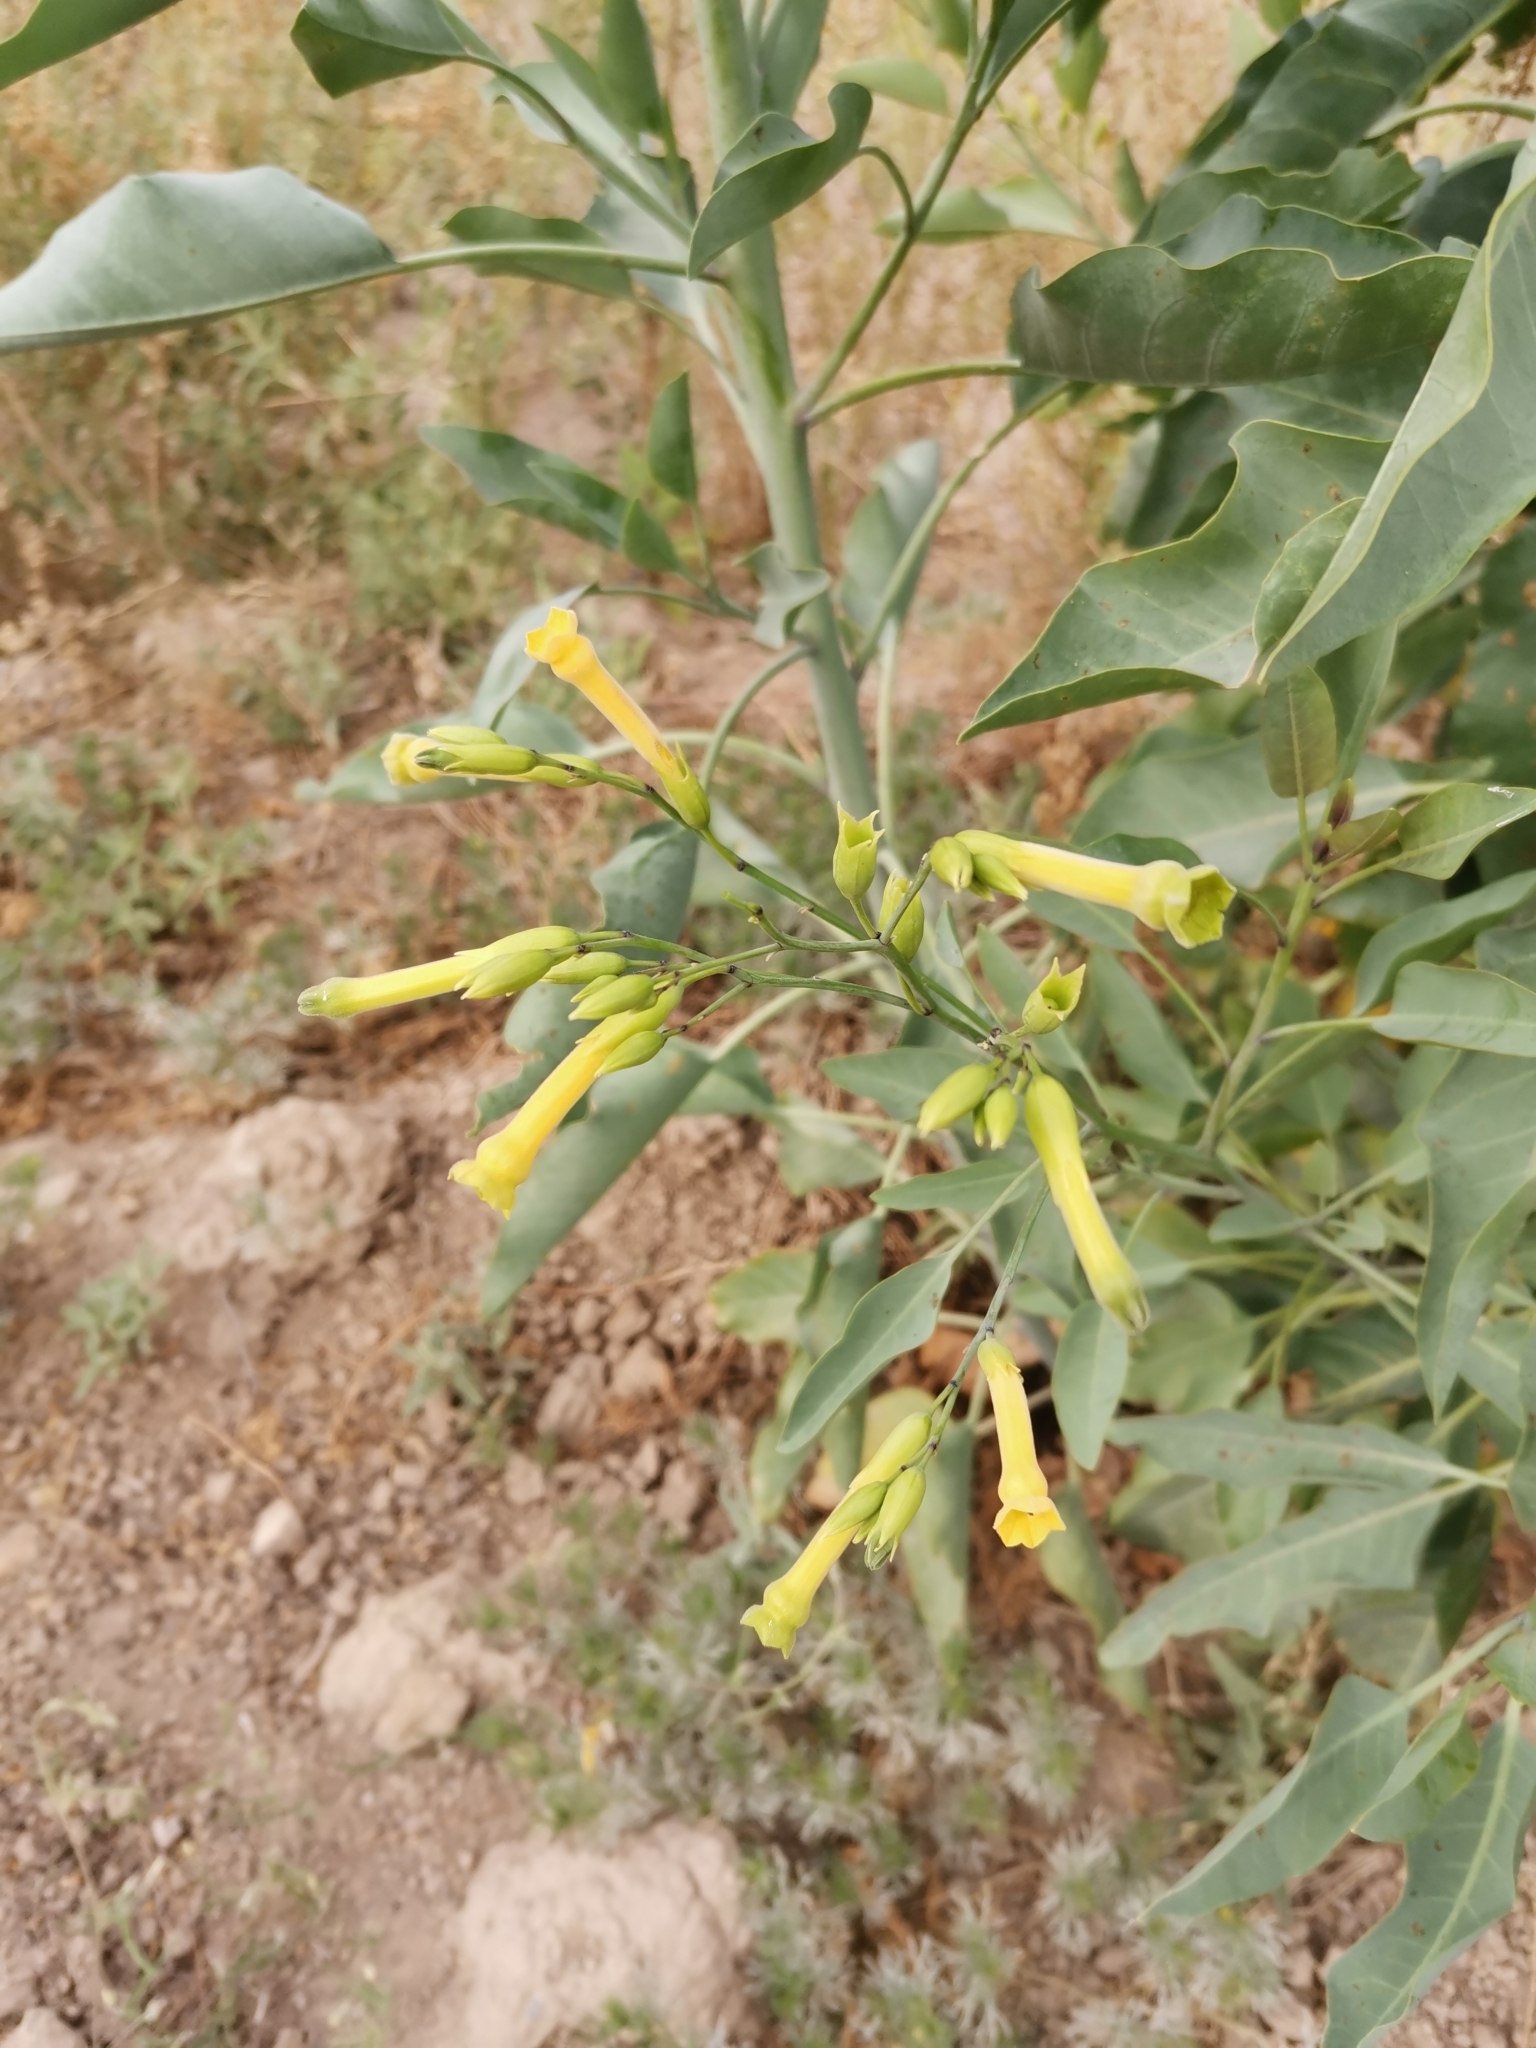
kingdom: Plantae
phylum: Tracheophyta
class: Magnoliopsida
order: Solanales
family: Solanaceae
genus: Nicotiana
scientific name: Nicotiana glauca
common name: Tree tobacco
